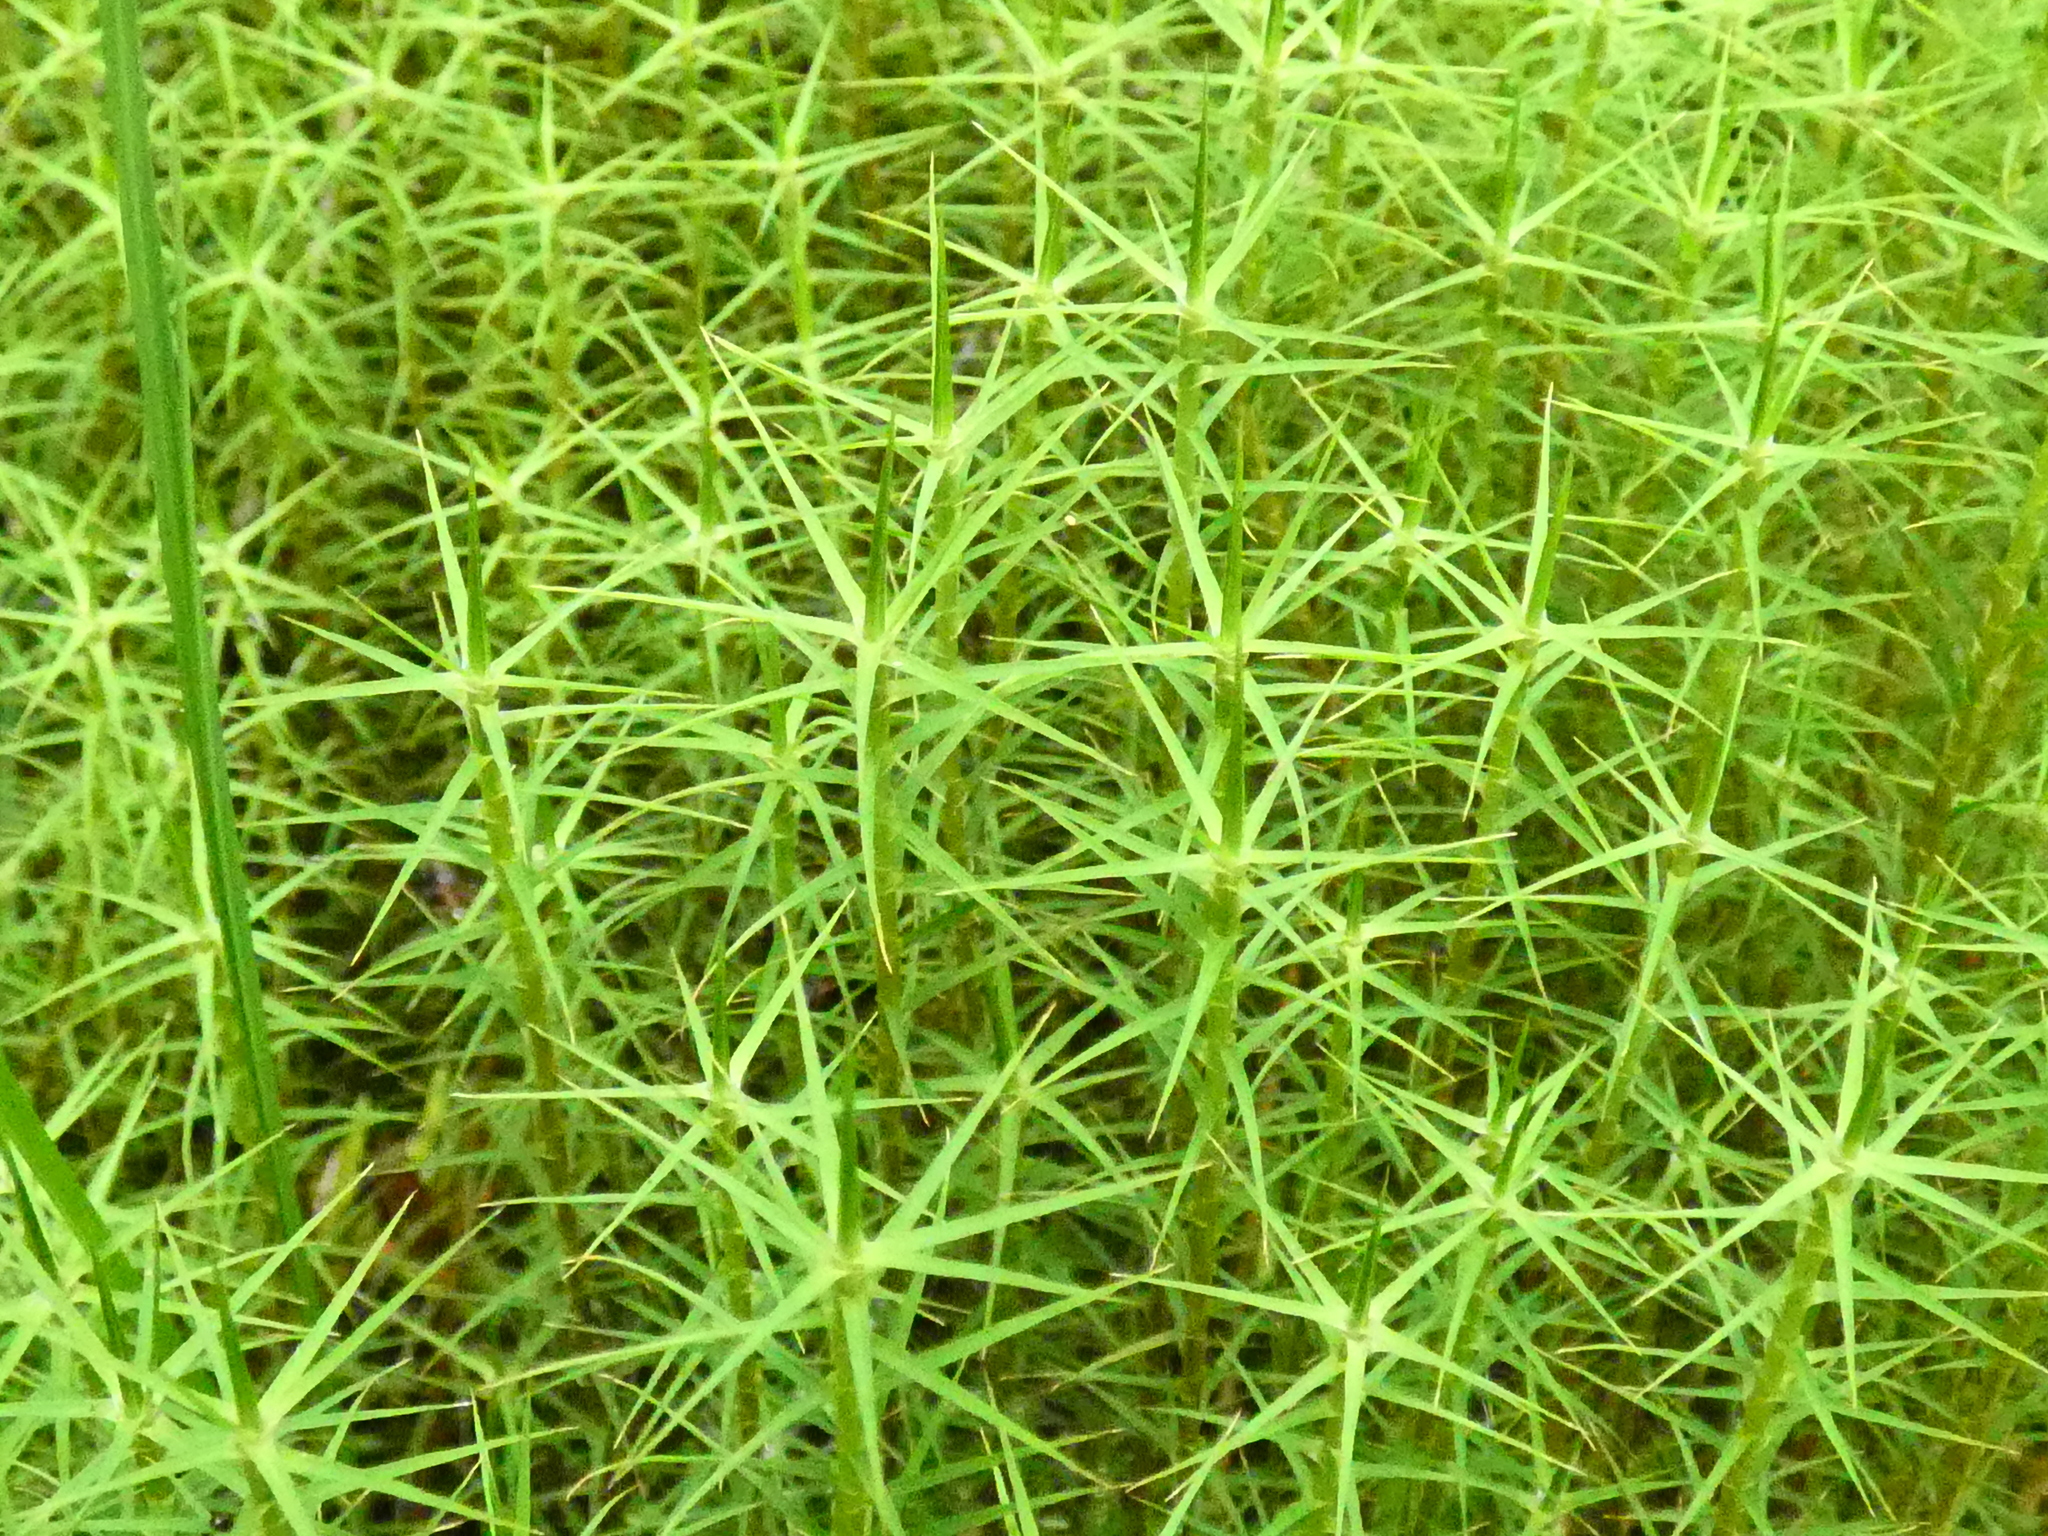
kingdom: Plantae
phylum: Bryophyta
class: Polytrichopsida
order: Polytrichales
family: Polytrichaceae
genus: Polytrichum
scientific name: Polytrichum commune
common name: Common haircap
